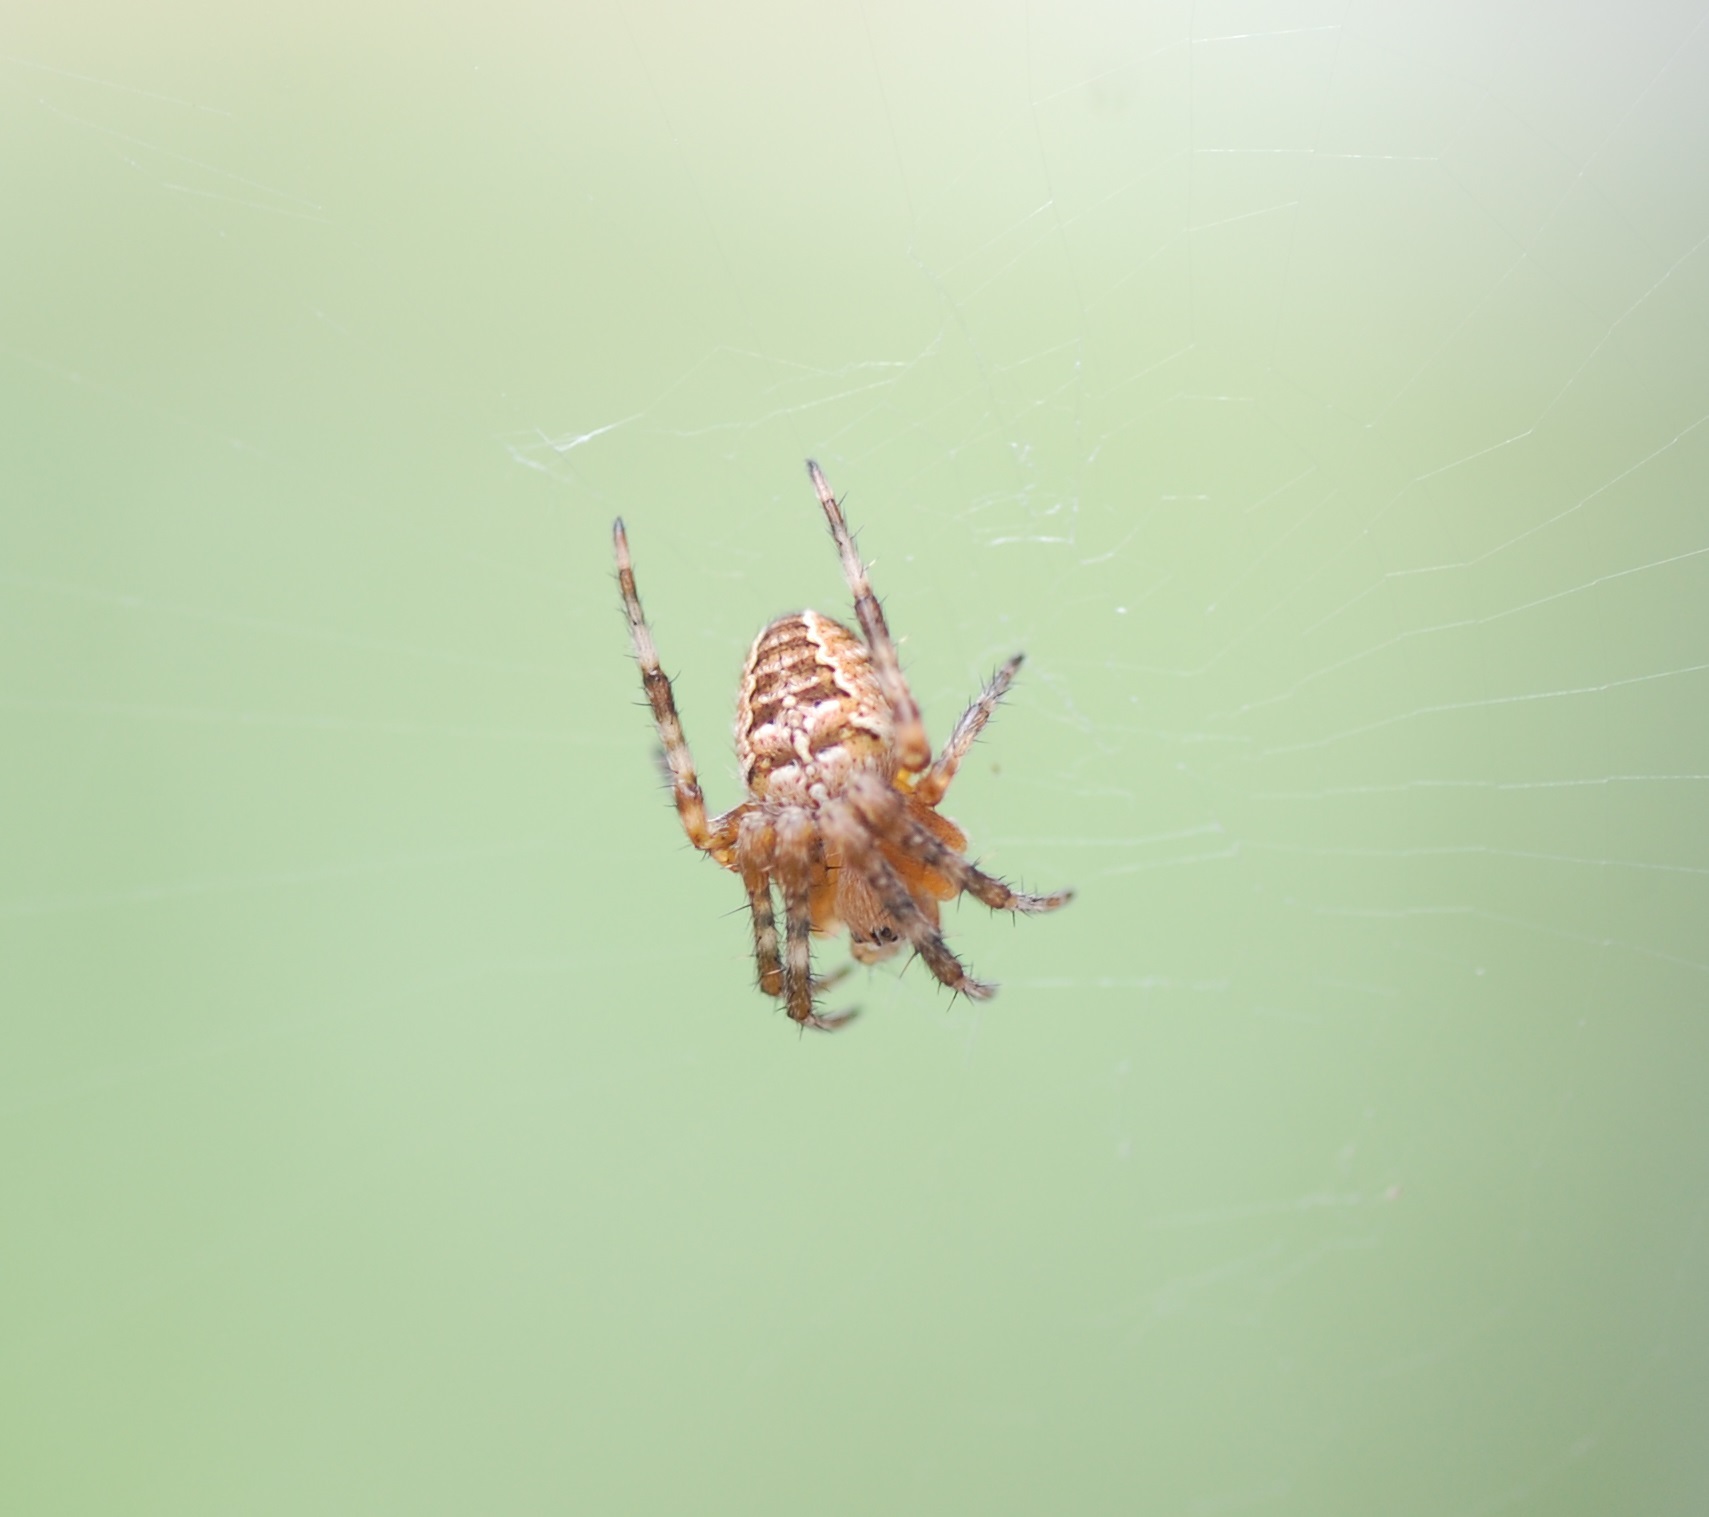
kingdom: Animalia
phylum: Arthropoda
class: Arachnida
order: Araneae
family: Araneidae
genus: Araneus
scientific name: Araneus diadematus
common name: Cross orbweaver
